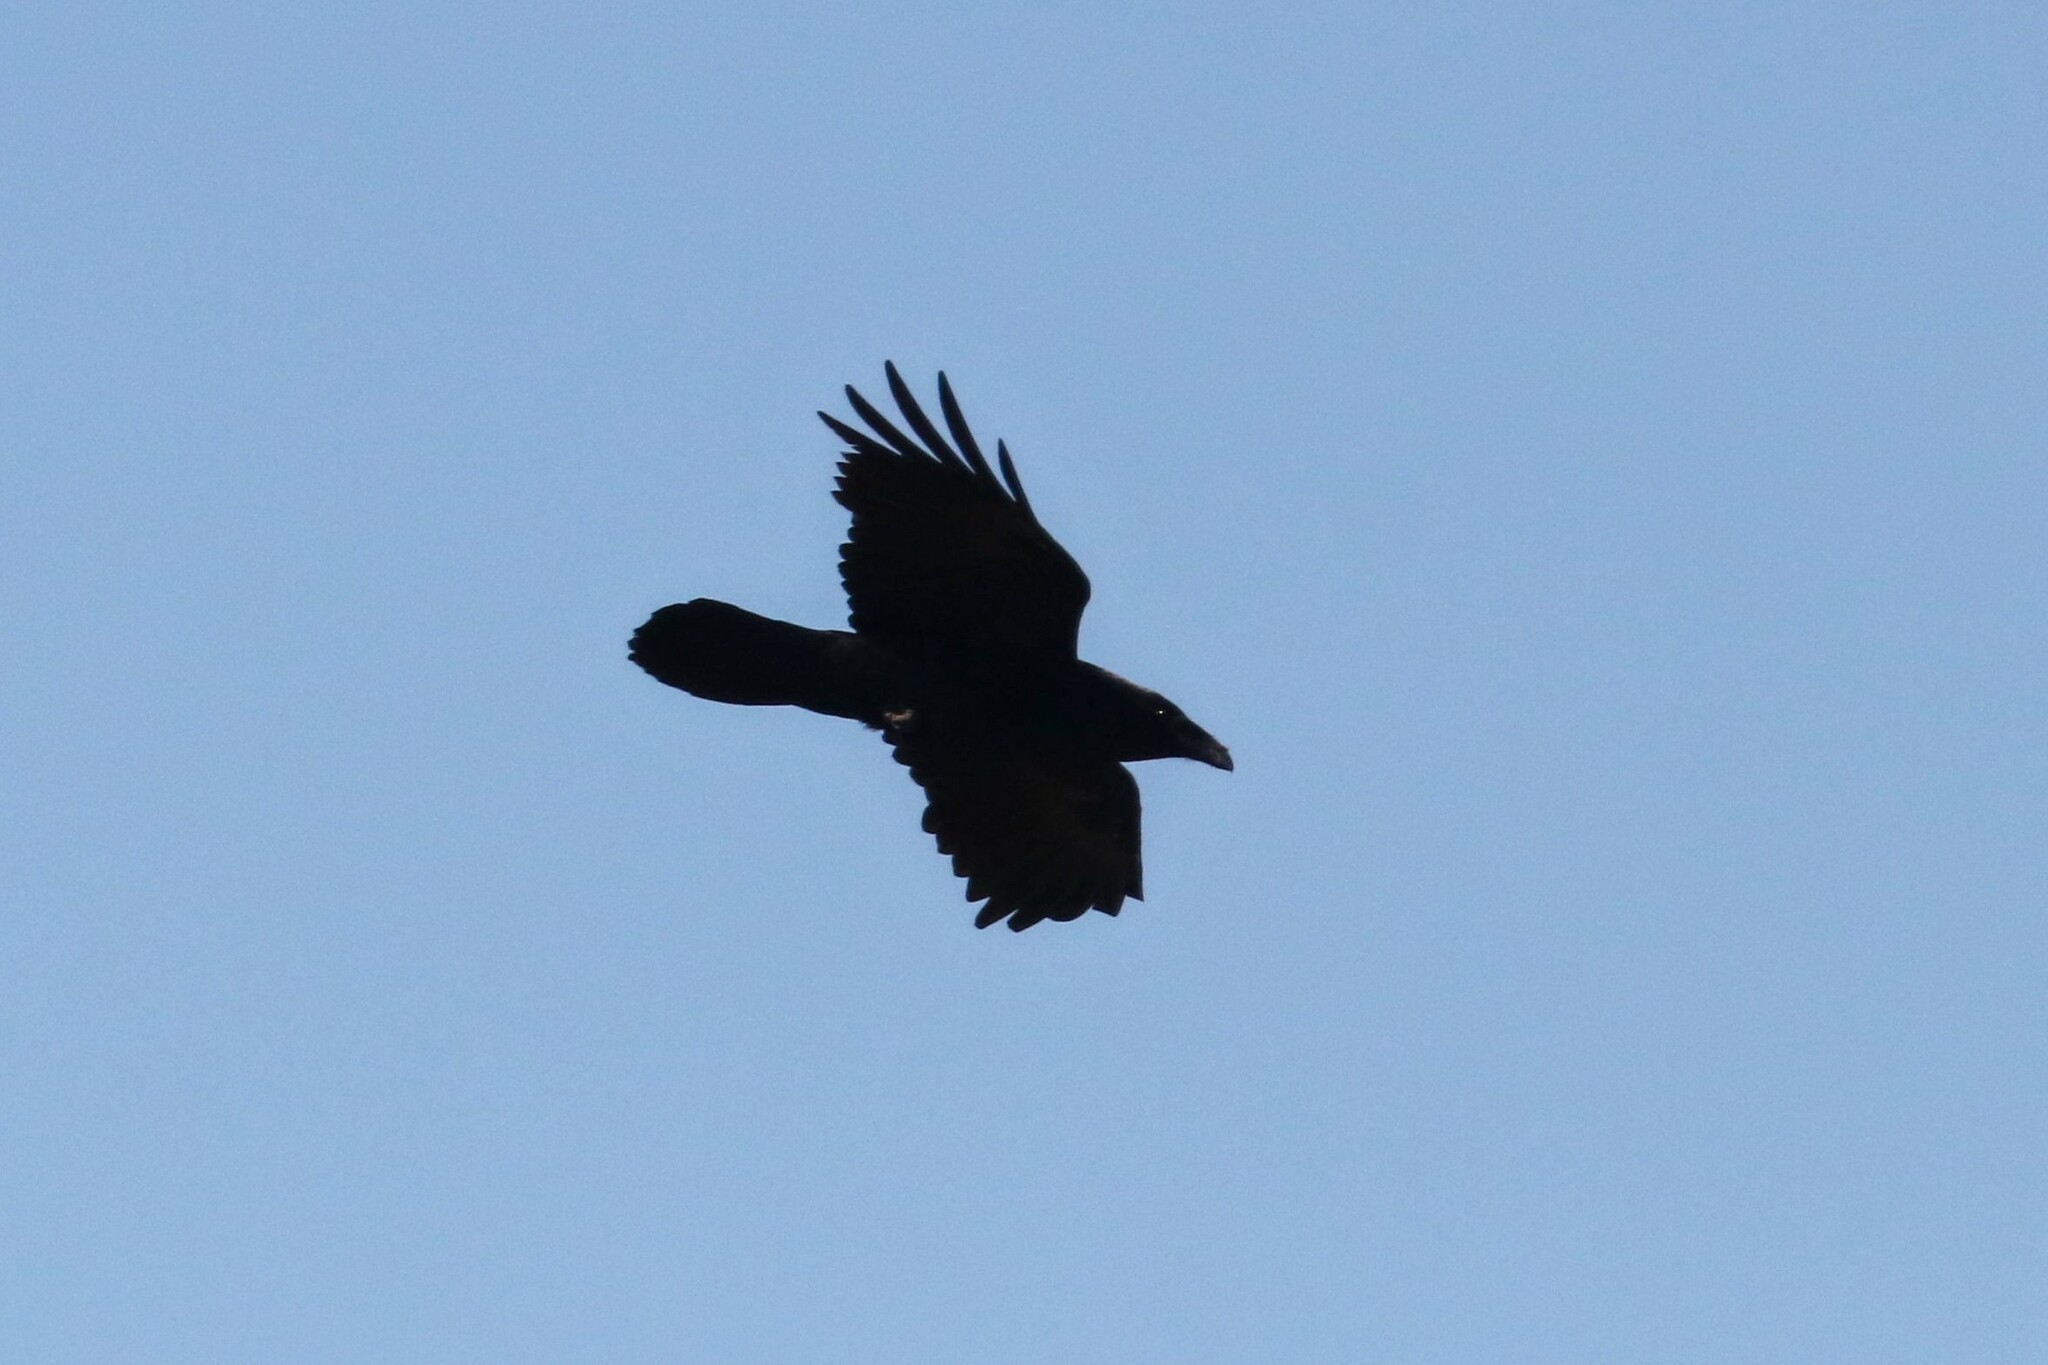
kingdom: Animalia
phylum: Chordata
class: Aves
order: Passeriformes
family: Corvidae
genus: Corvus
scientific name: Corvus corax
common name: Common raven
